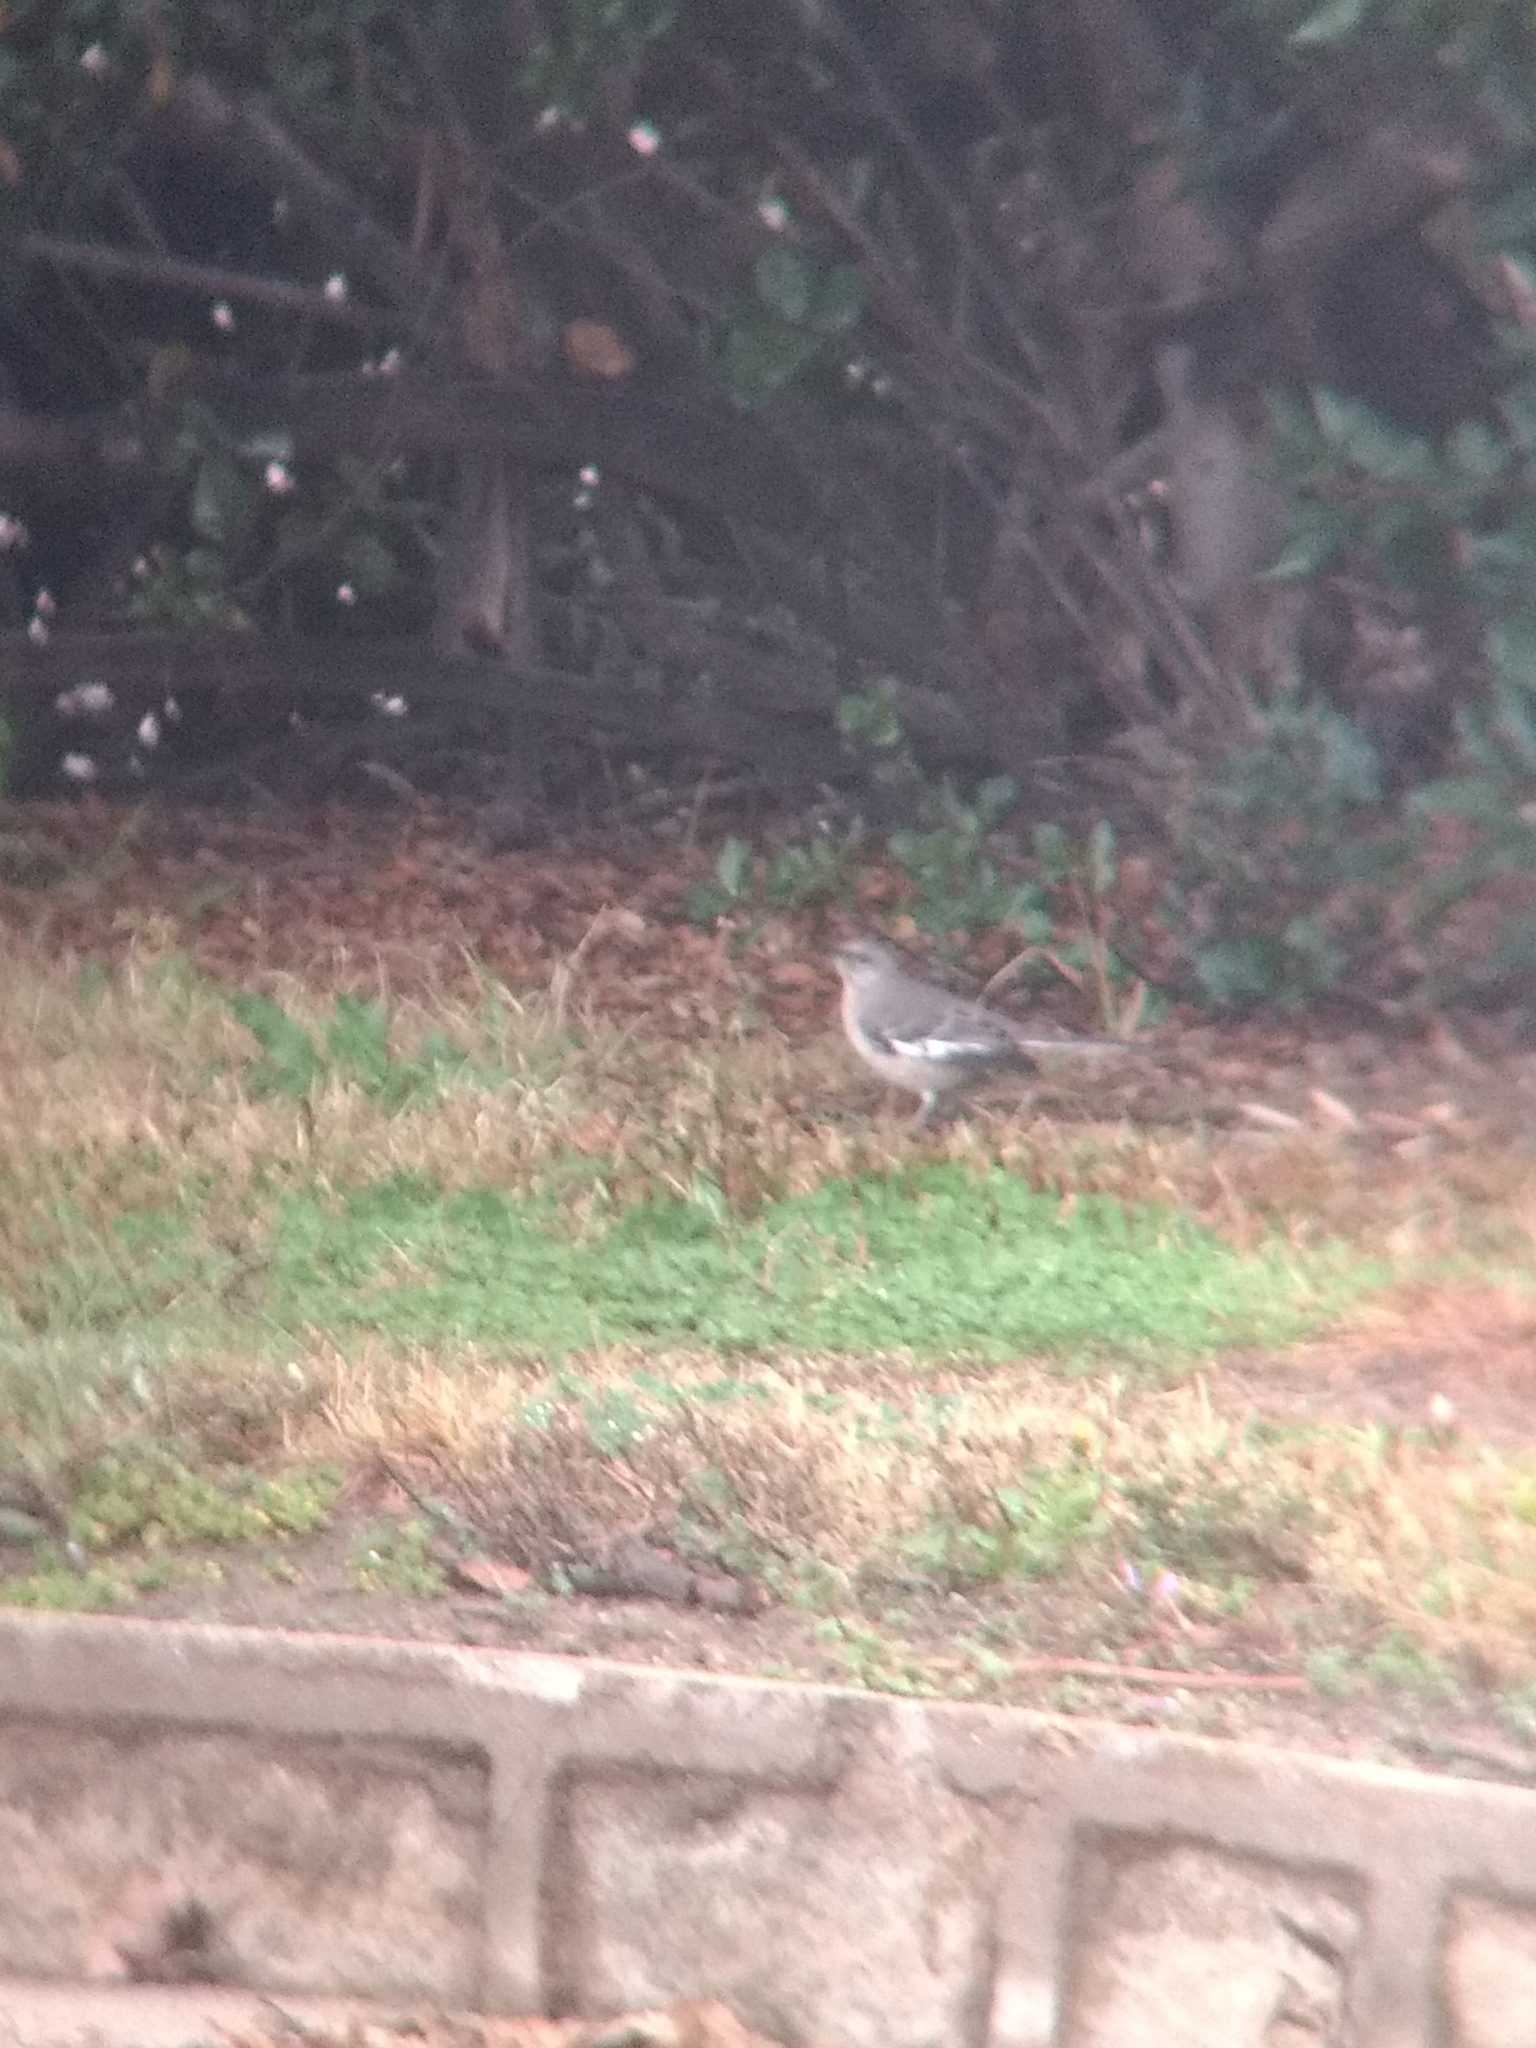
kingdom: Animalia
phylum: Chordata
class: Aves
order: Passeriformes
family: Mimidae
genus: Mimus
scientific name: Mimus polyglottos
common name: Northern mockingbird
